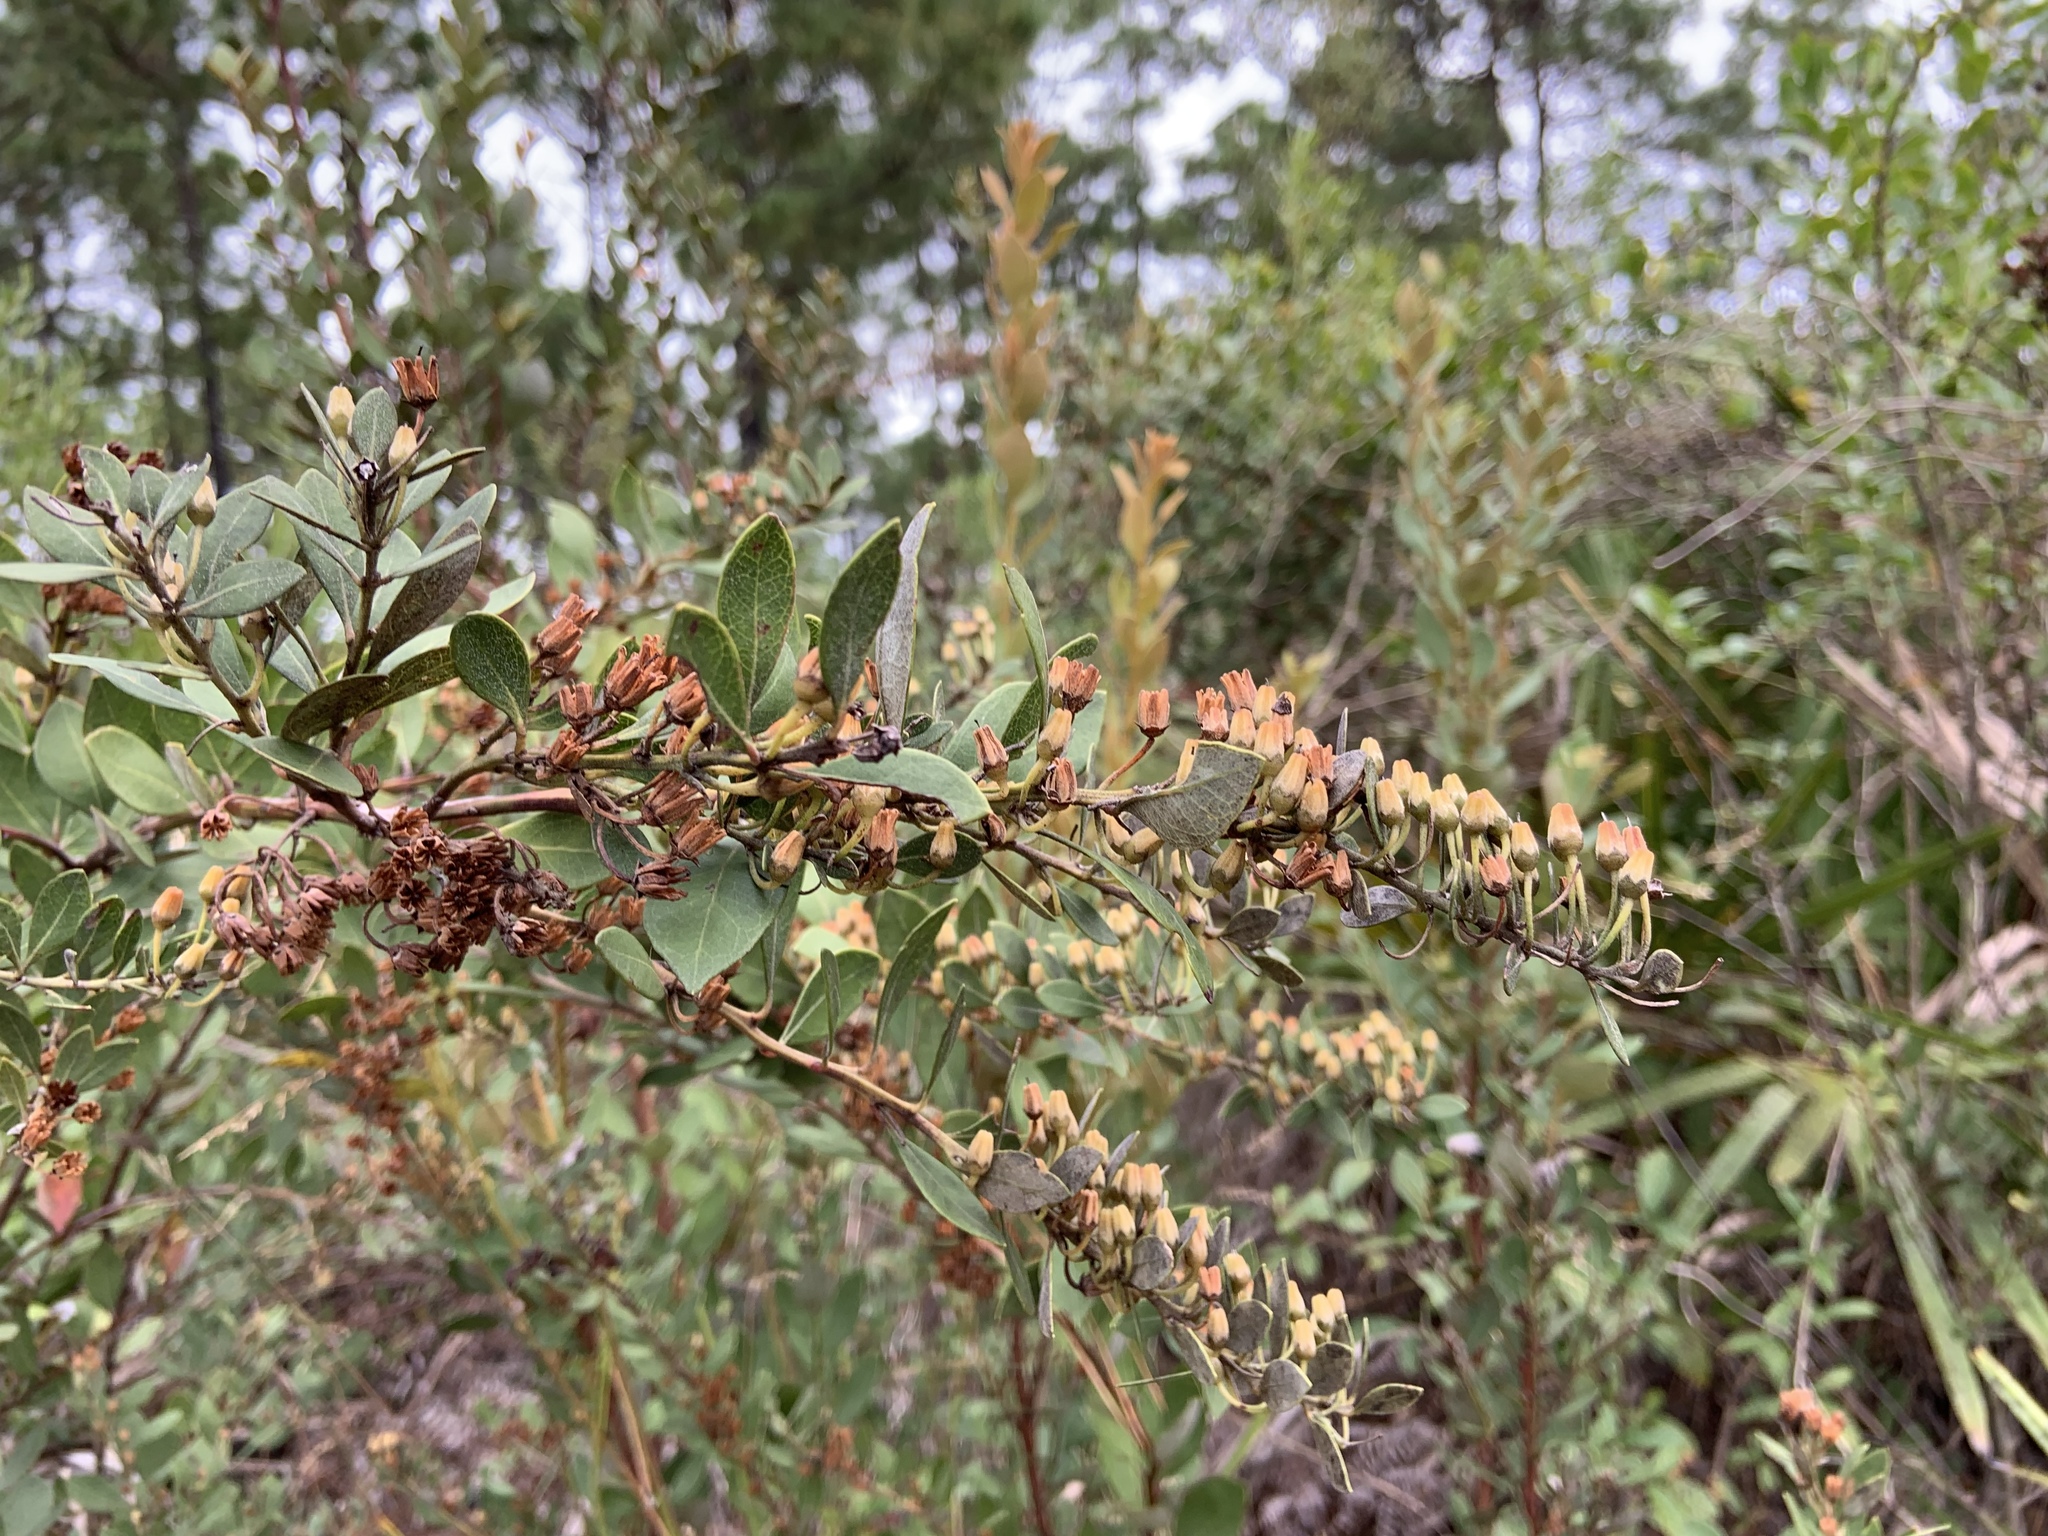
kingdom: Plantae
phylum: Tracheophyta
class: Magnoliopsida
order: Ericales
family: Ericaceae
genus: Lyonia
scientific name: Lyonia fruticosa
